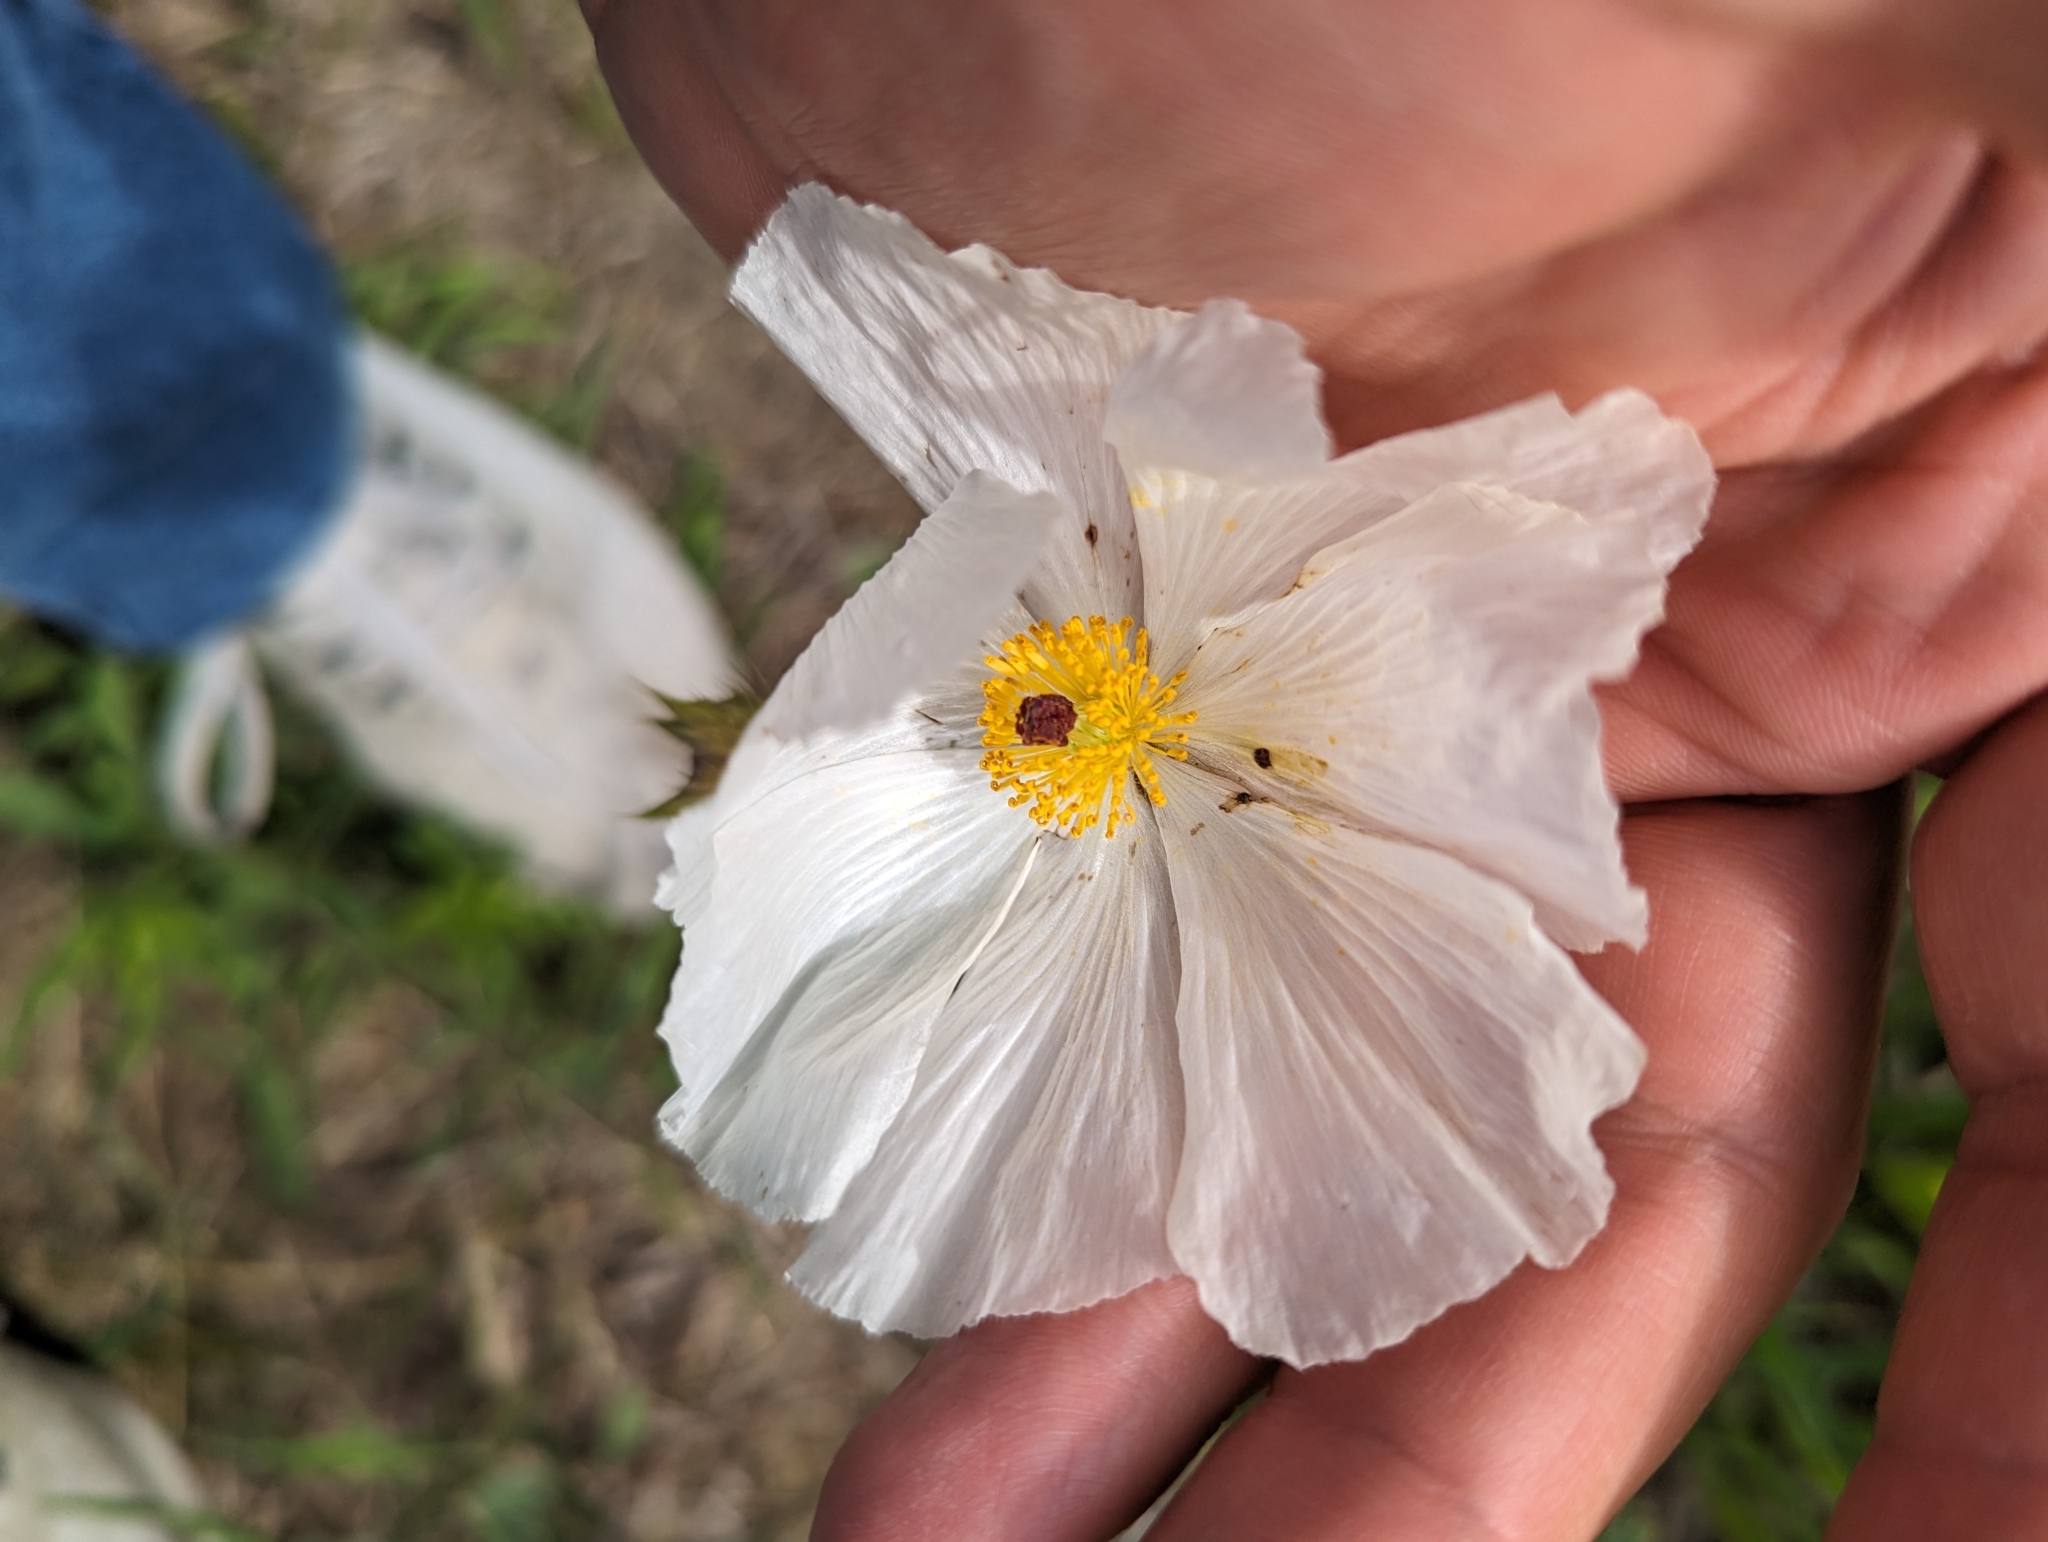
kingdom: Plantae
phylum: Tracheophyta
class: Magnoliopsida
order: Ranunculales
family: Papaveraceae
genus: Argemone
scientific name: Argemone polyanthemos
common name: Plains prickly-poppy
